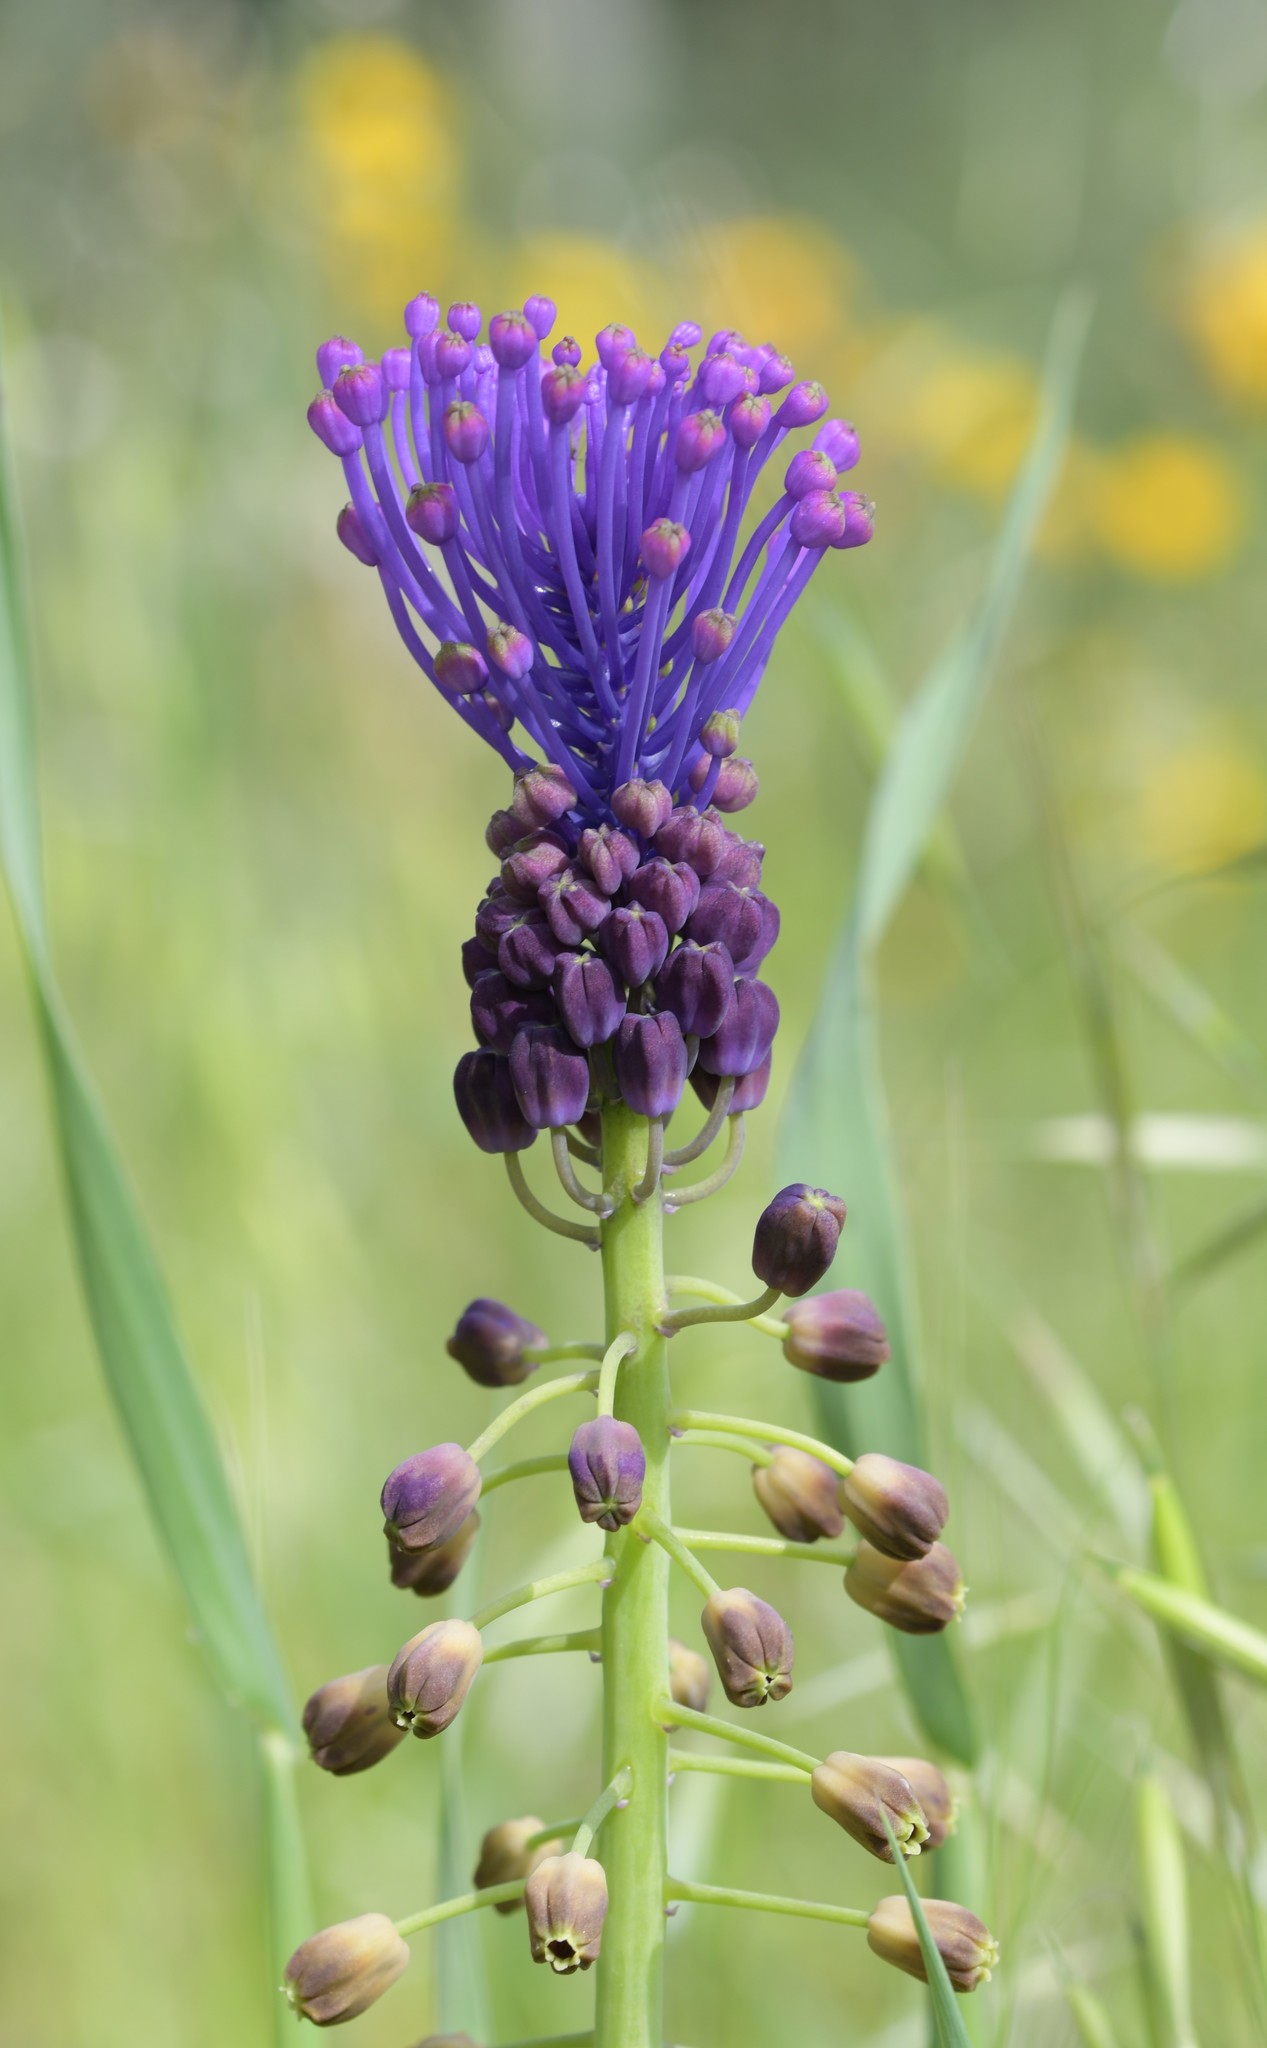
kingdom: Plantae
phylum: Tracheophyta
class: Liliopsida
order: Asparagales
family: Asparagaceae
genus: Muscari
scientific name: Muscari comosum
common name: Tassel hyacinth
